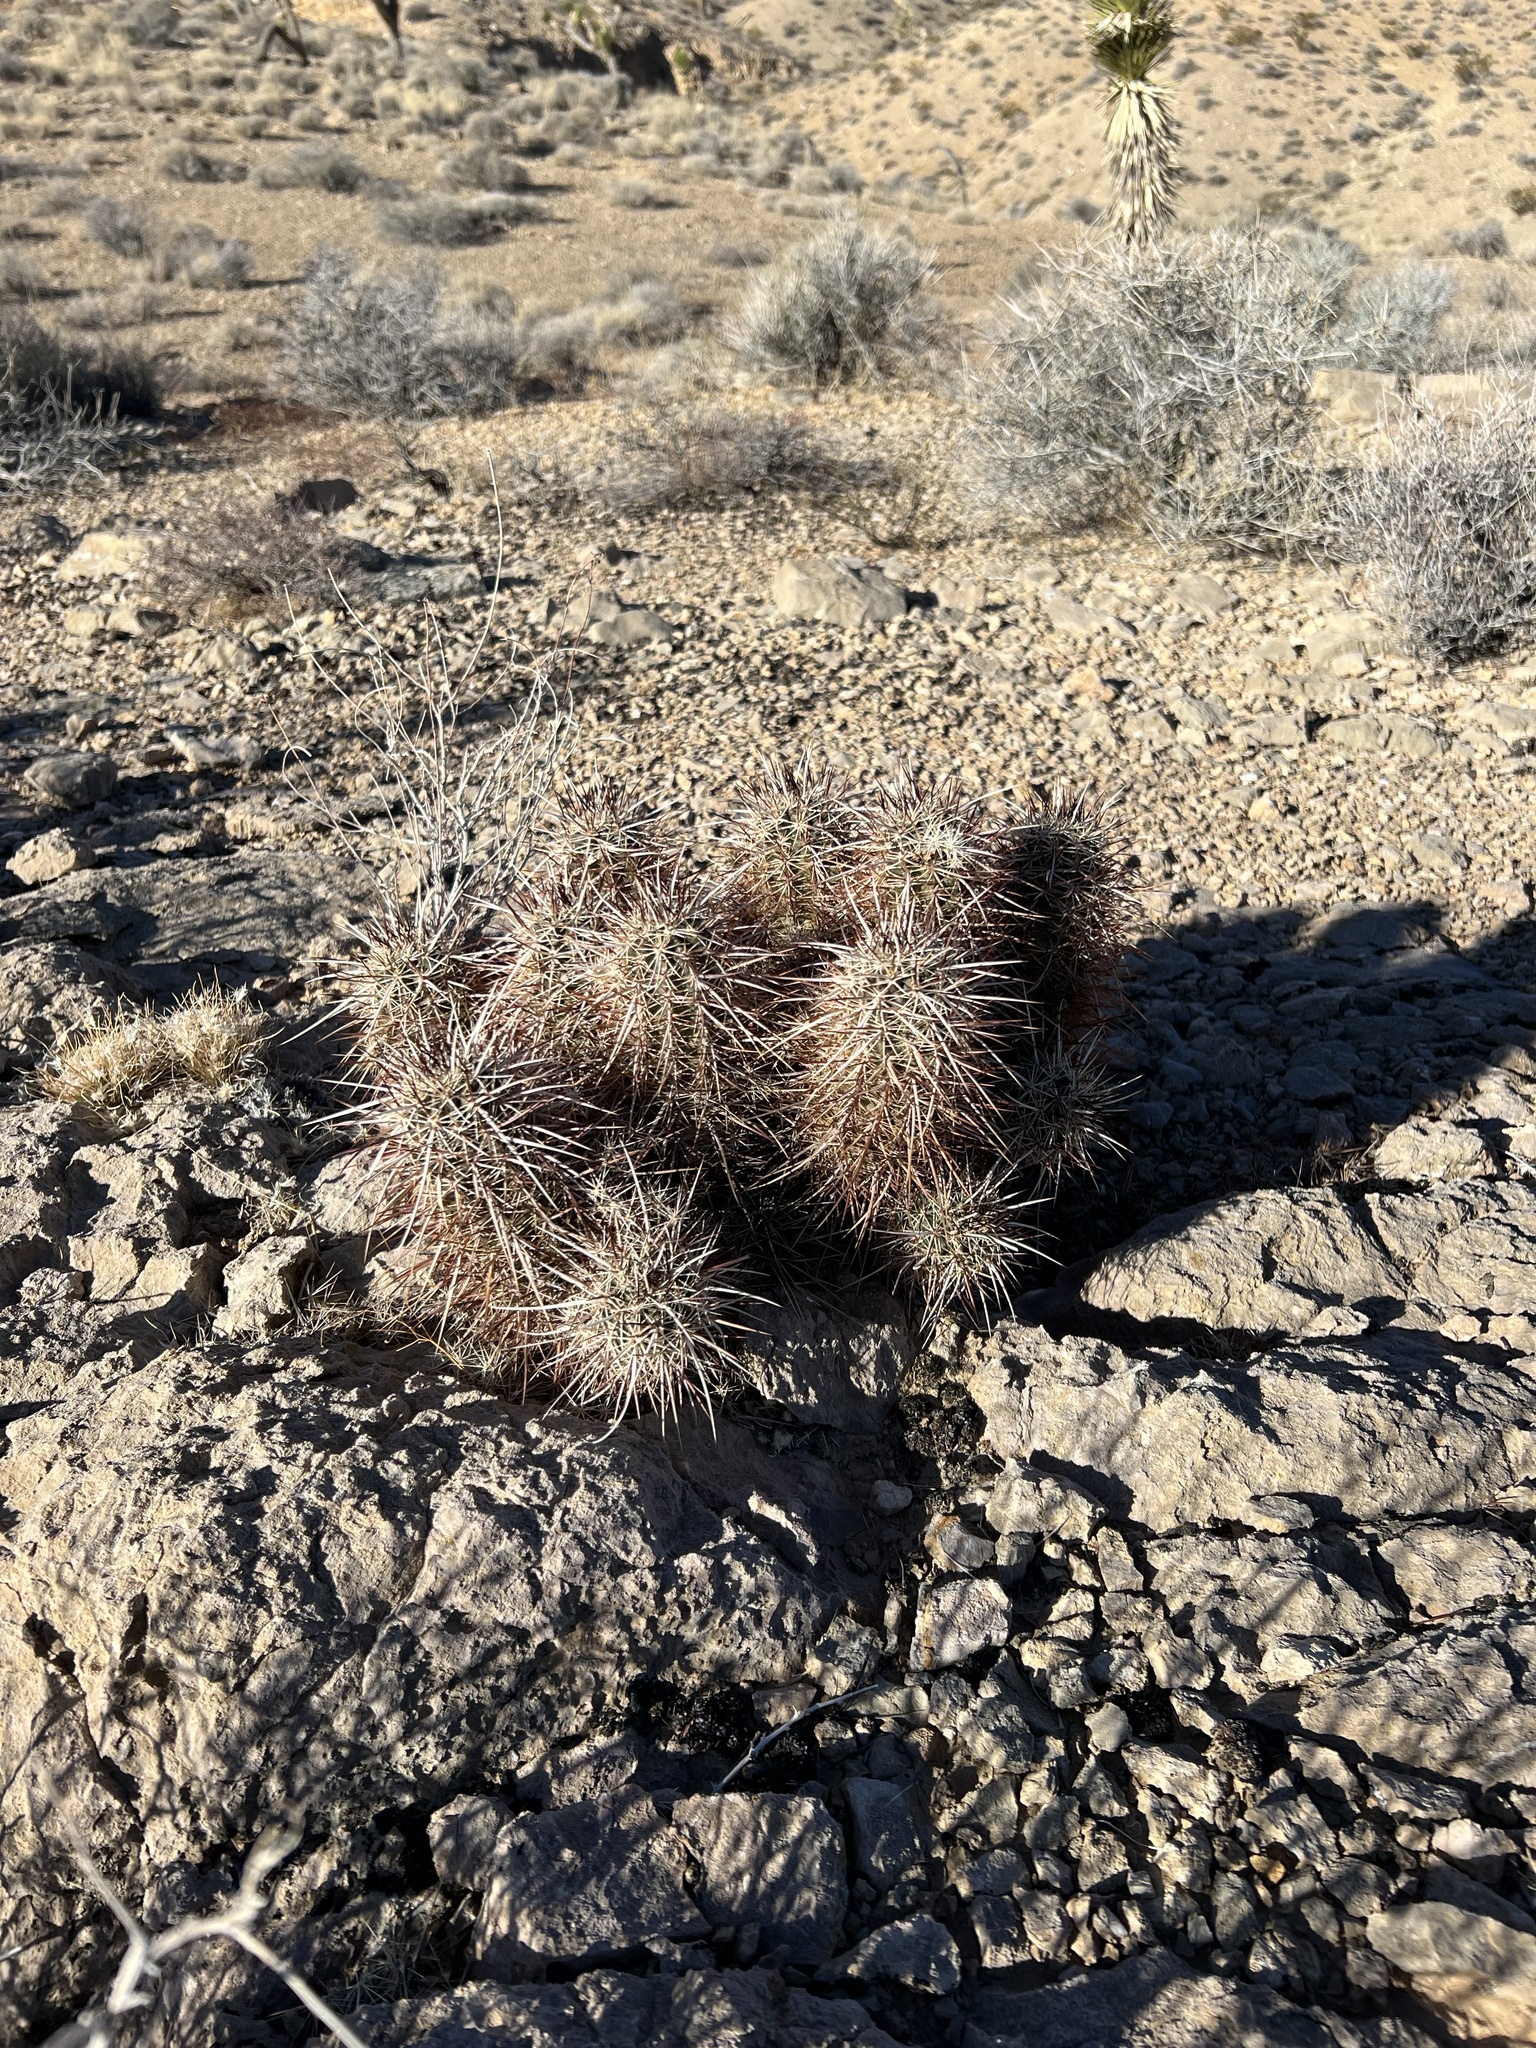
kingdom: Plantae
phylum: Tracheophyta
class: Magnoliopsida
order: Caryophyllales
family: Cactaceae
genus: Echinocereus
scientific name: Echinocereus engelmannii
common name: Engelmann's hedgehog cactus
